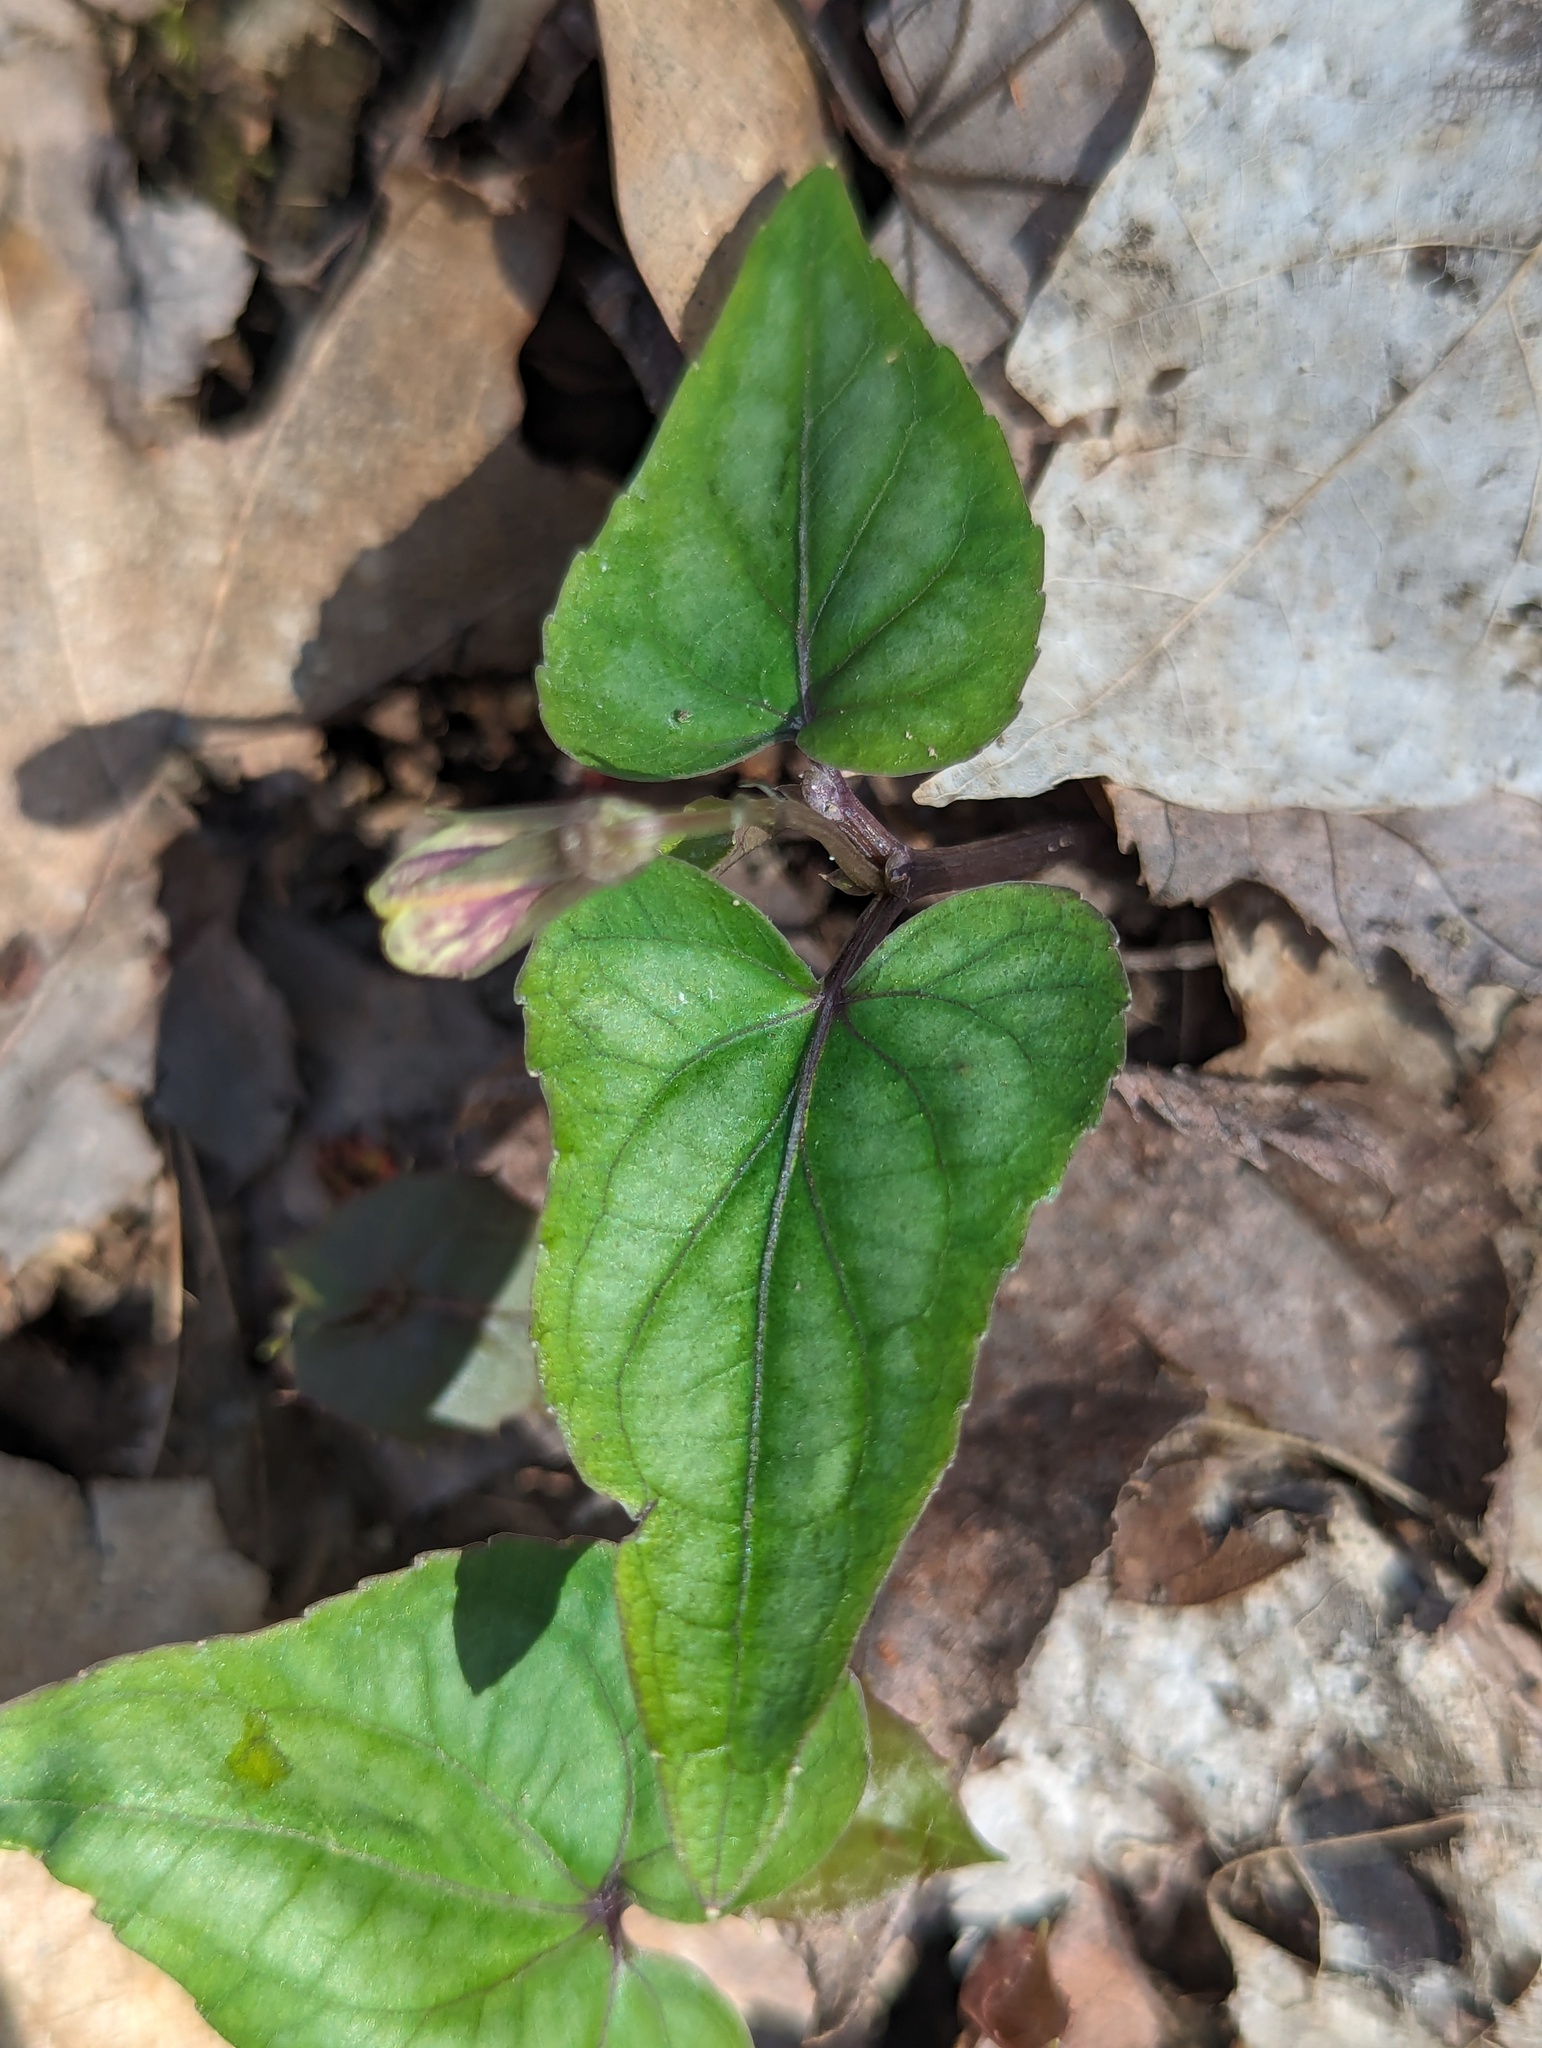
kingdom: Plantae
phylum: Tracheophyta
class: Magnoliopsida
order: Malpighiales
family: Violaceae
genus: Viola
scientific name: Viola hastata
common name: Spear-leaf violet
